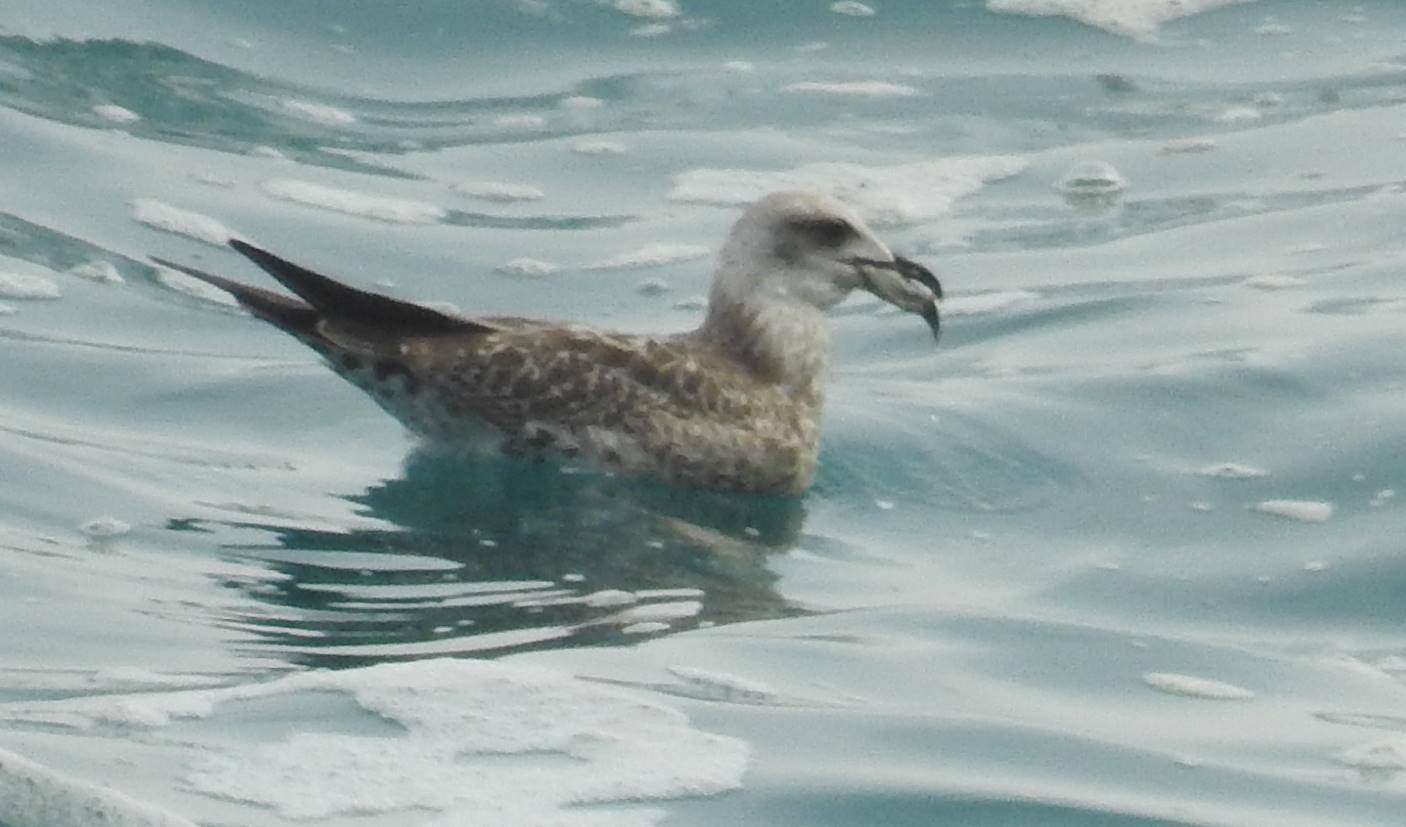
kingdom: Animalia
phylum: Chordata
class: Aves
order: Charadriiformes
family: Laridae
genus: Larus
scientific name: Larus michahellis
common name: Yellow-legged gull
